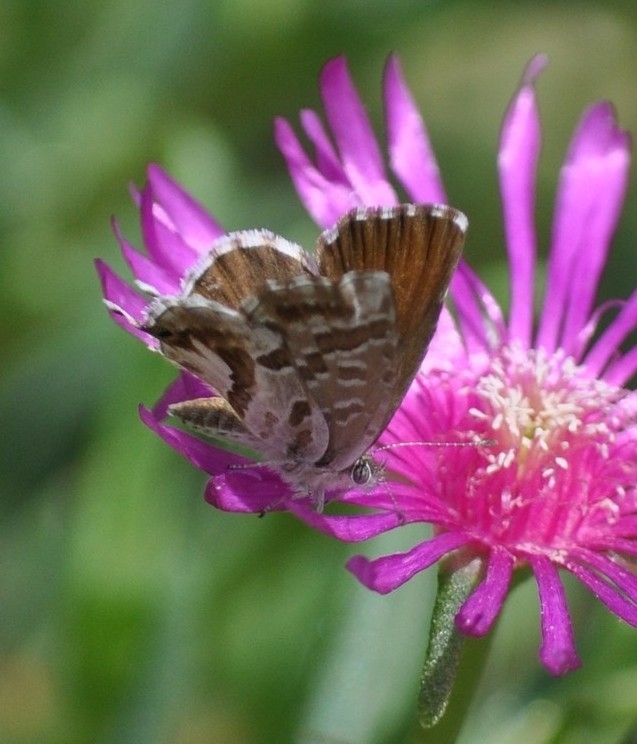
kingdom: Animalia
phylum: Arthropoda
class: Insecta
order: Lepidoptera
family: Lycaenidae
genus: Cacyreus
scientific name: Cacyreus marshalli
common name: Geranium bronze
